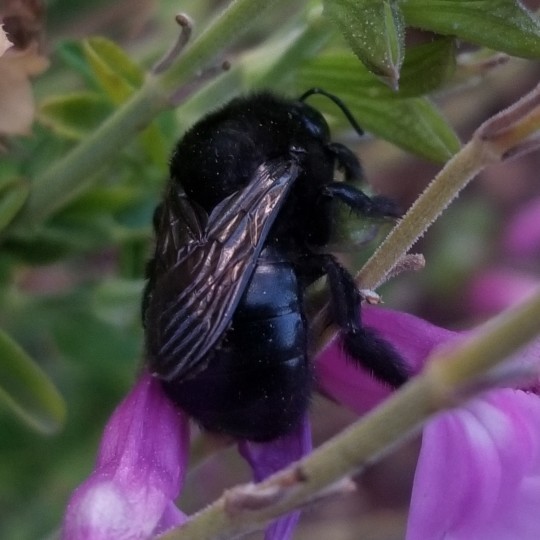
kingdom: Animalia
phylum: Arthropoda
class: Insecta
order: Hymenoptera
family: Apidae
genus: Xylocopa
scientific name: Xylocopa tabaniformis
